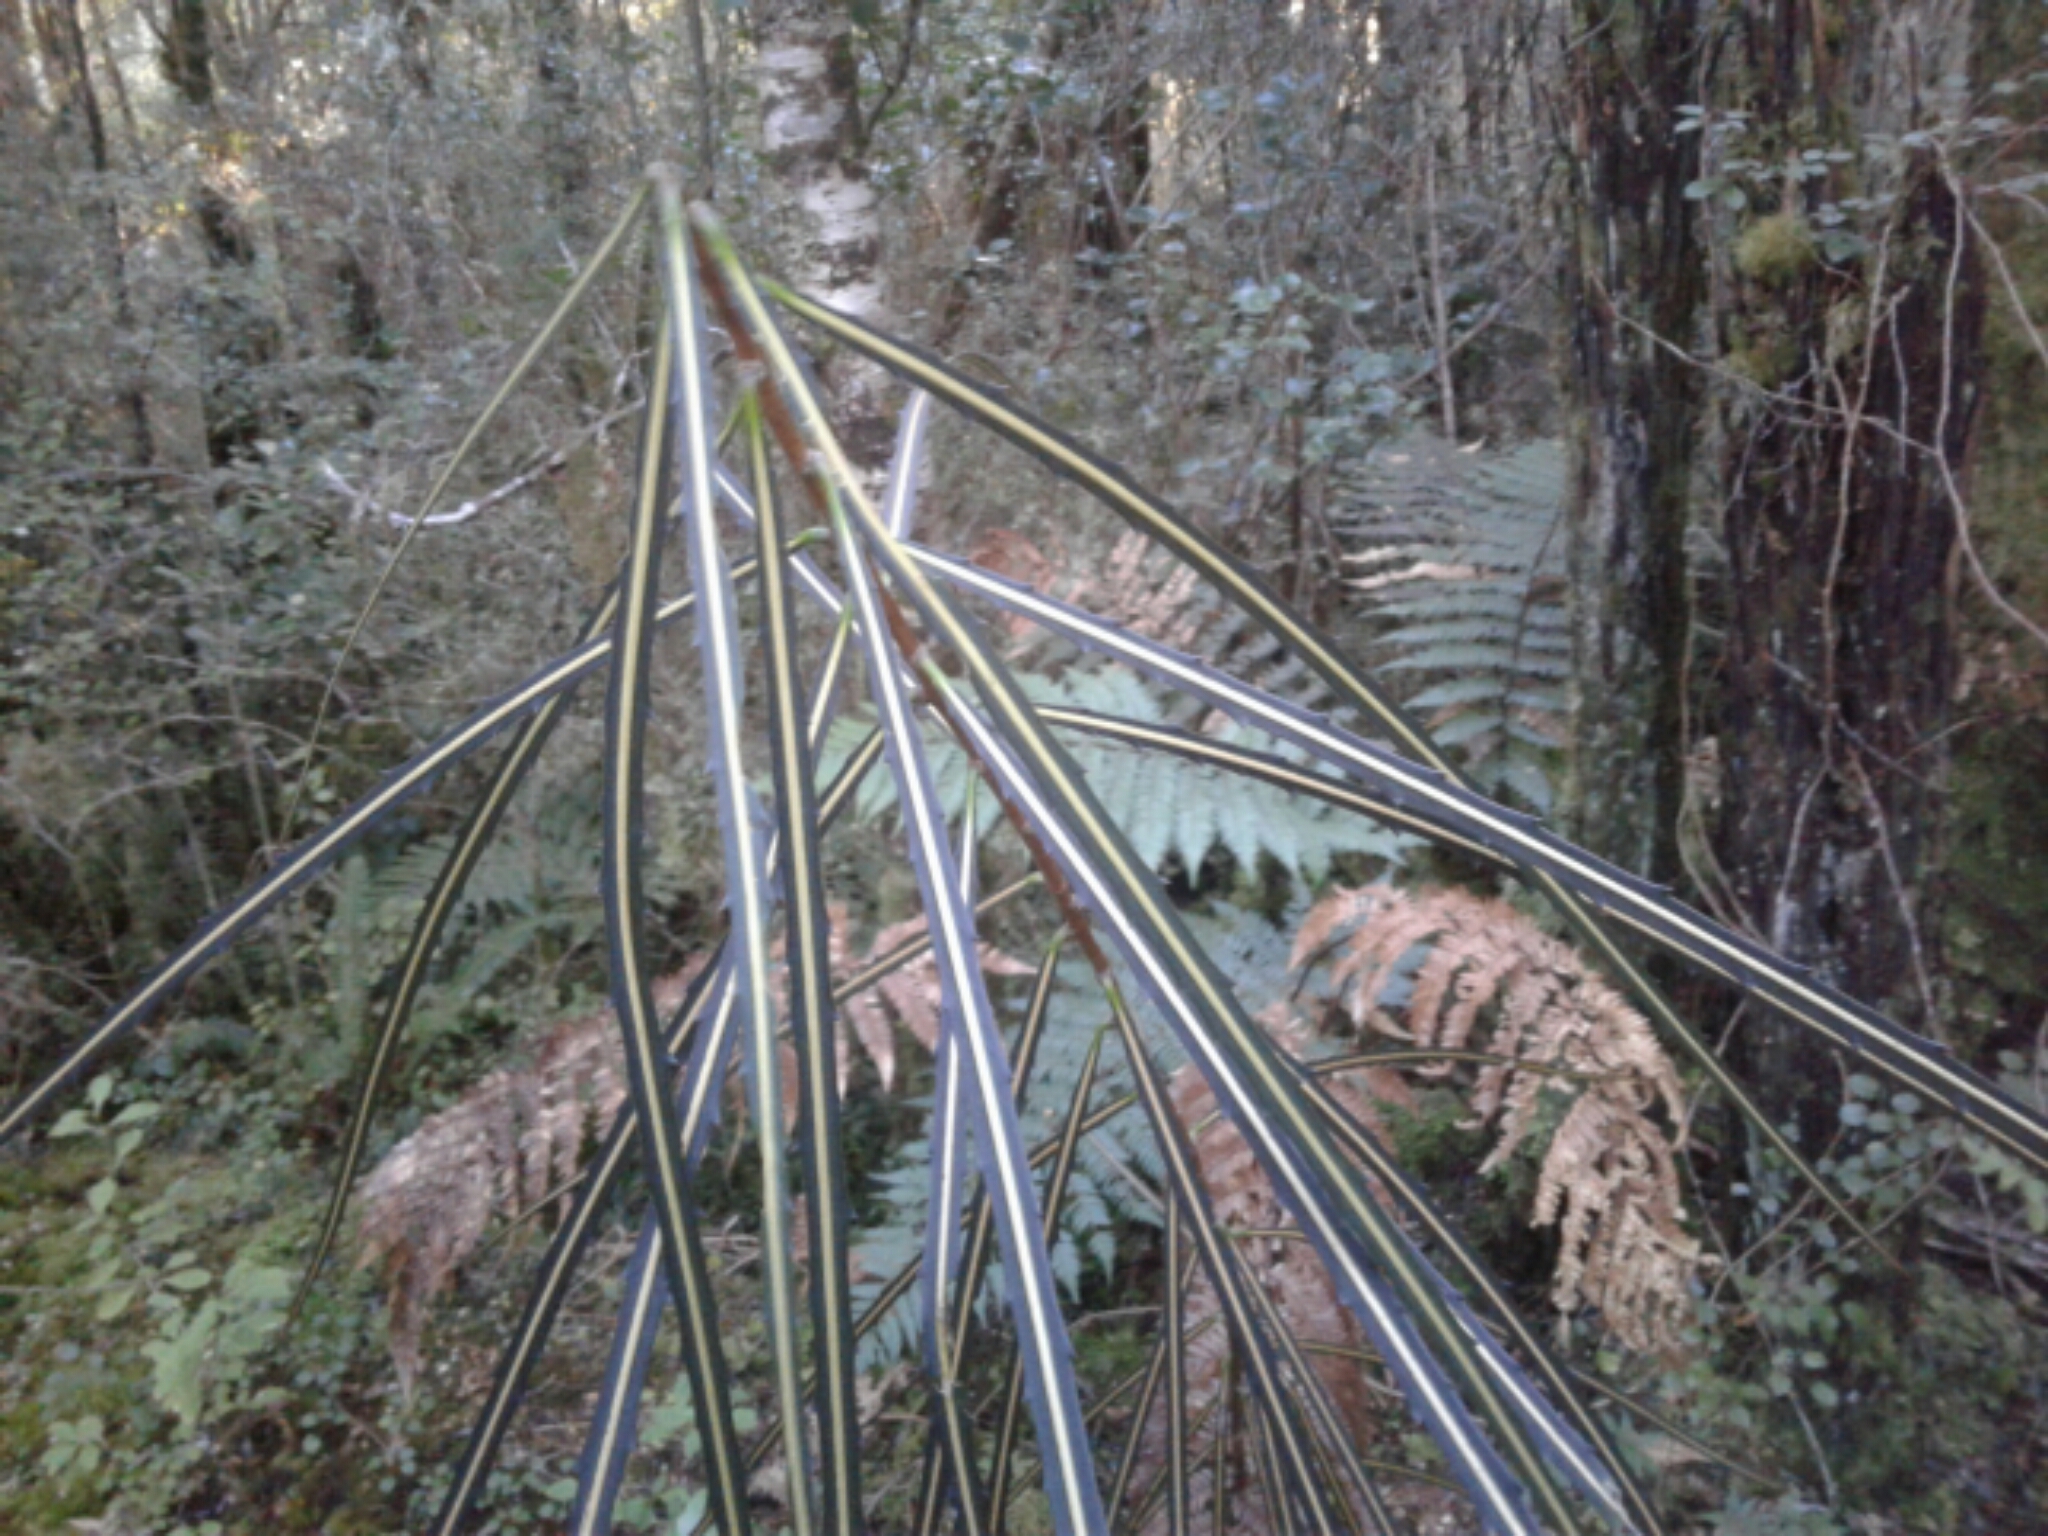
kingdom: Plantae
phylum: Tracheophyta
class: Magnoliopsida
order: Apiales
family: Araliaceae
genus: Pseudopanax
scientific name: Pseudopanax crassifolius
